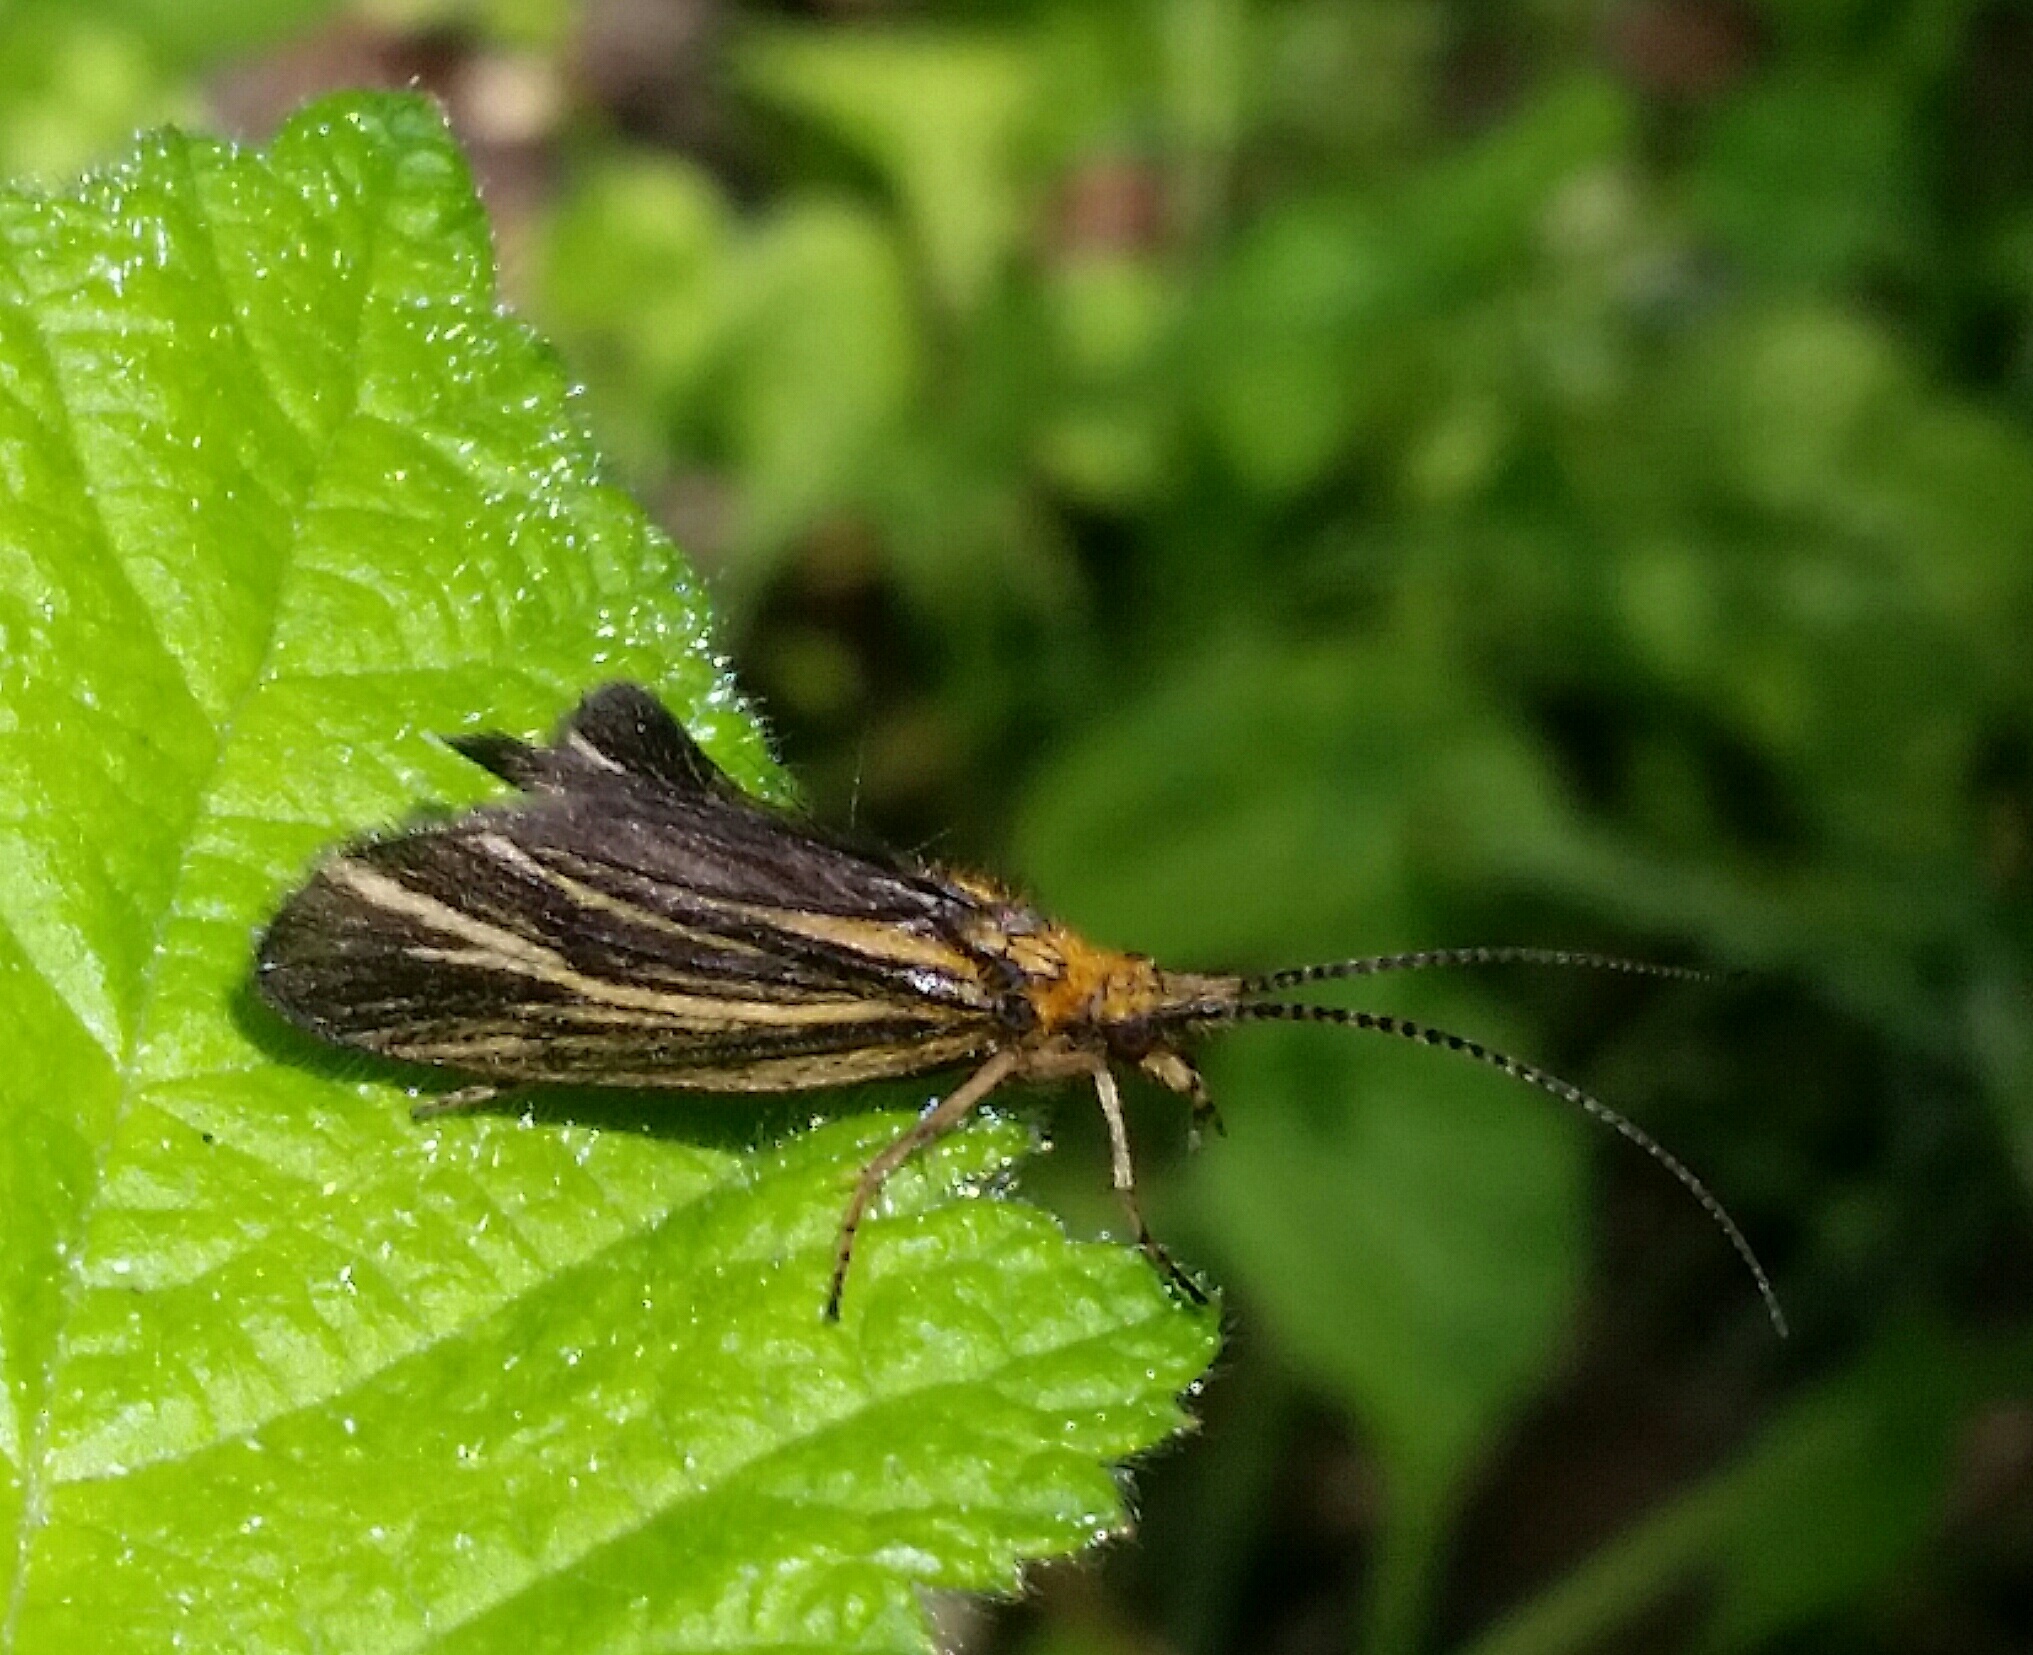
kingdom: Animalia
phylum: Arthropoda
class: Insecta
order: Trichoptera
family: Odontoceridae
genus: Nerophilus
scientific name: Nerophilus californicus
